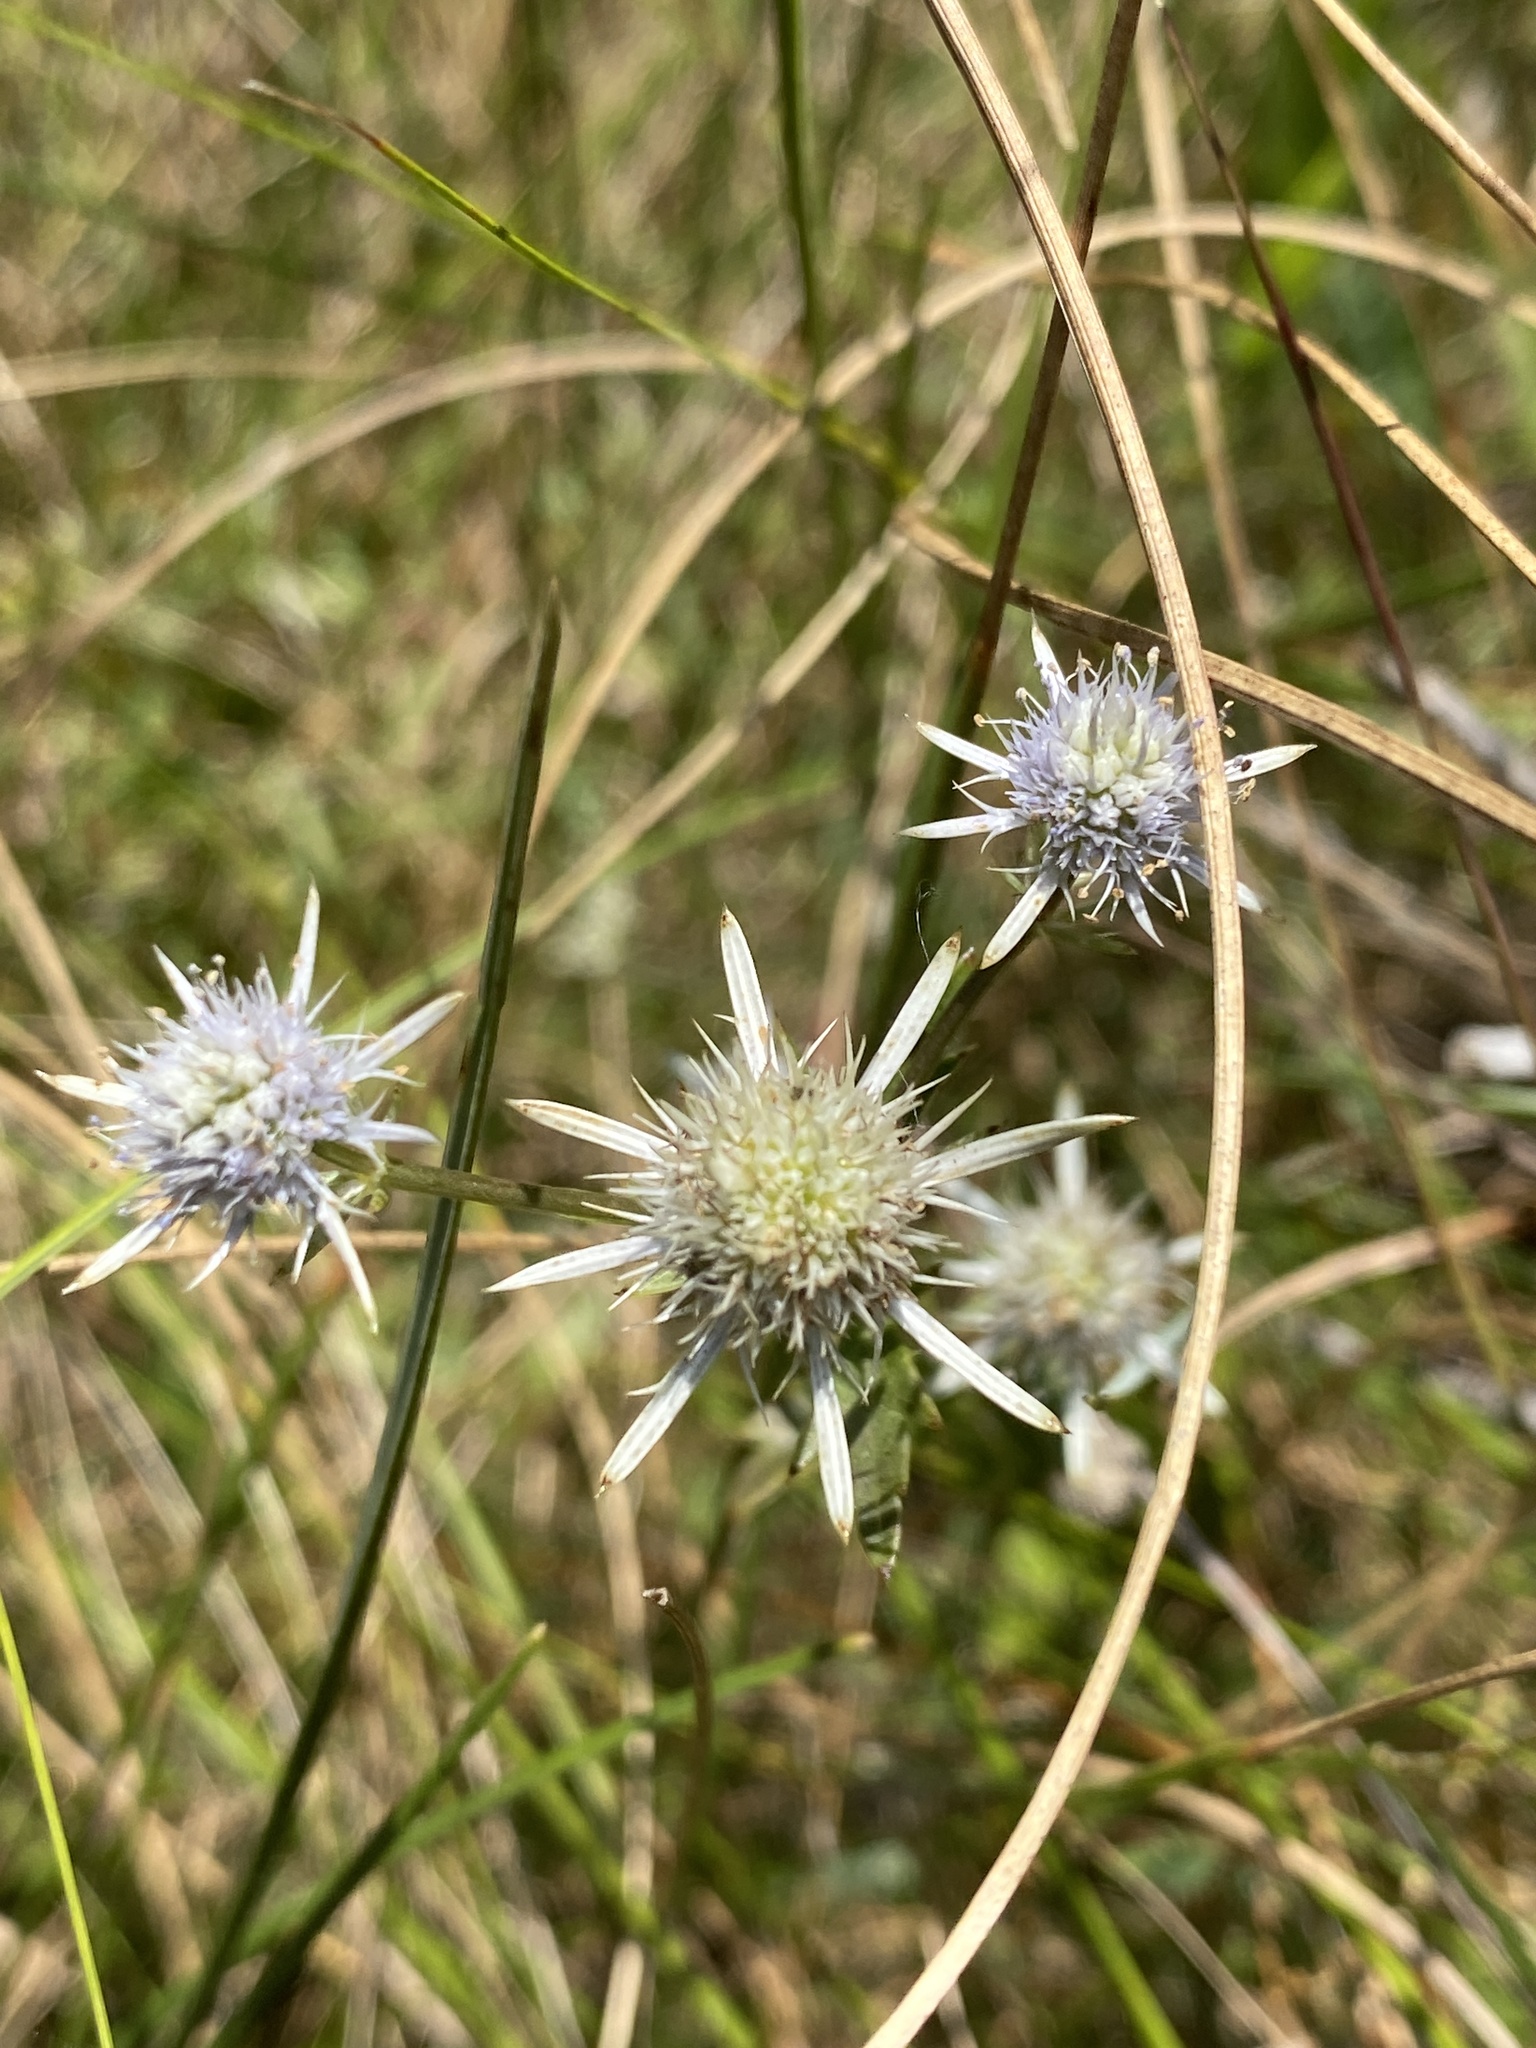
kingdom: Plantae
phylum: Tracheophyta
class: Magnoliopsida
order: Apiales
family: Apiaceae
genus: Eryngium
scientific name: Eryngium integrifolium
